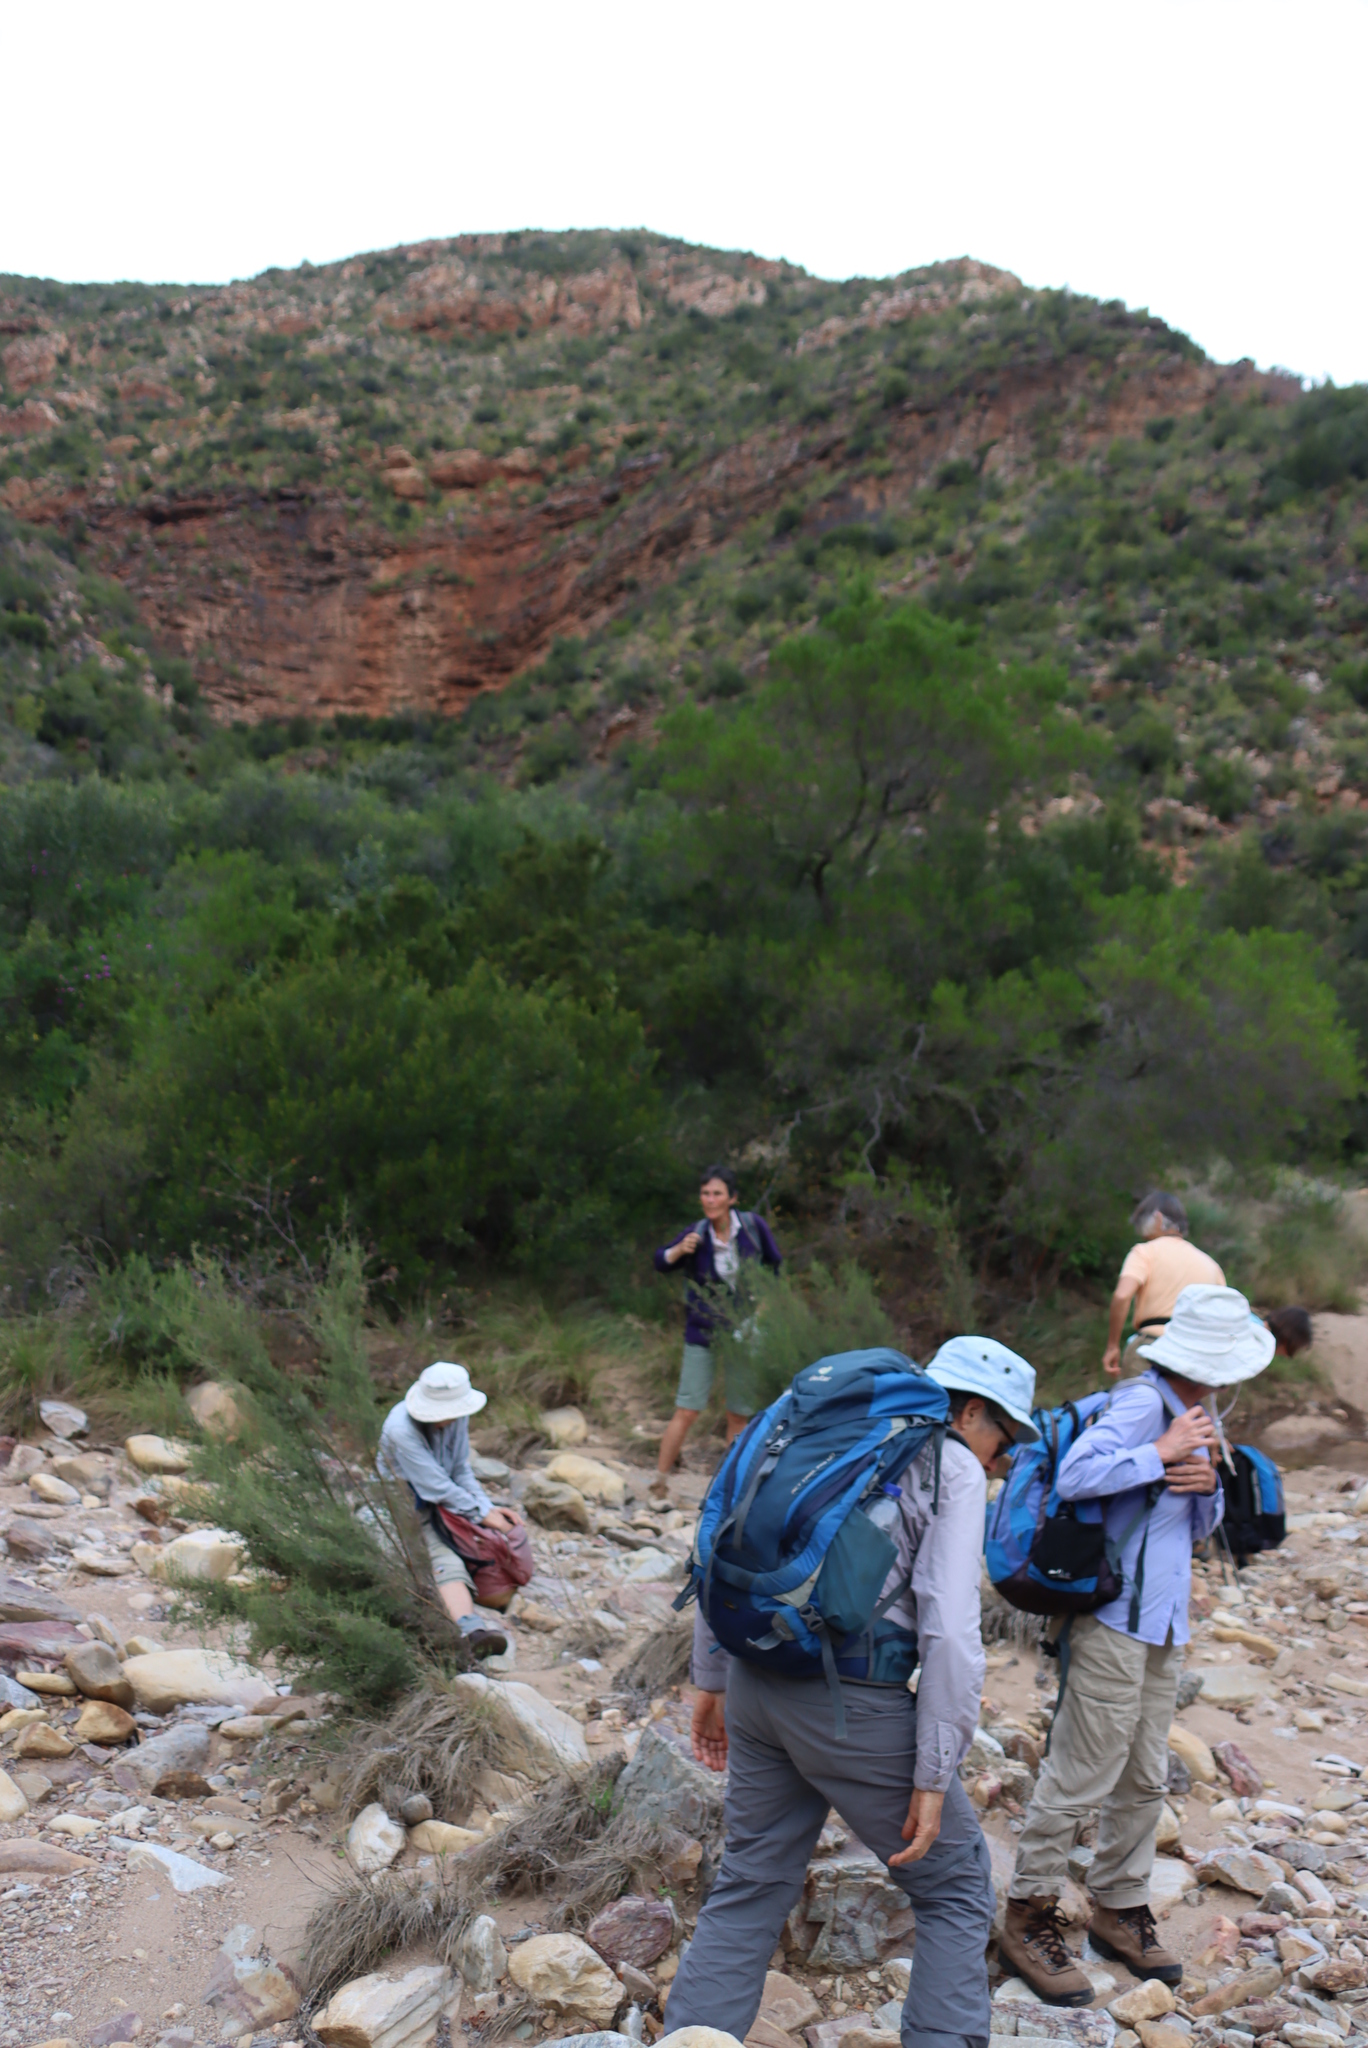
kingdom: Plantae
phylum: Tracheophyta
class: Magnoliopsida
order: Asterales
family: Asteraceae
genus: Dicerothamnus
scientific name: Dicerothamnus rhinocerotis
